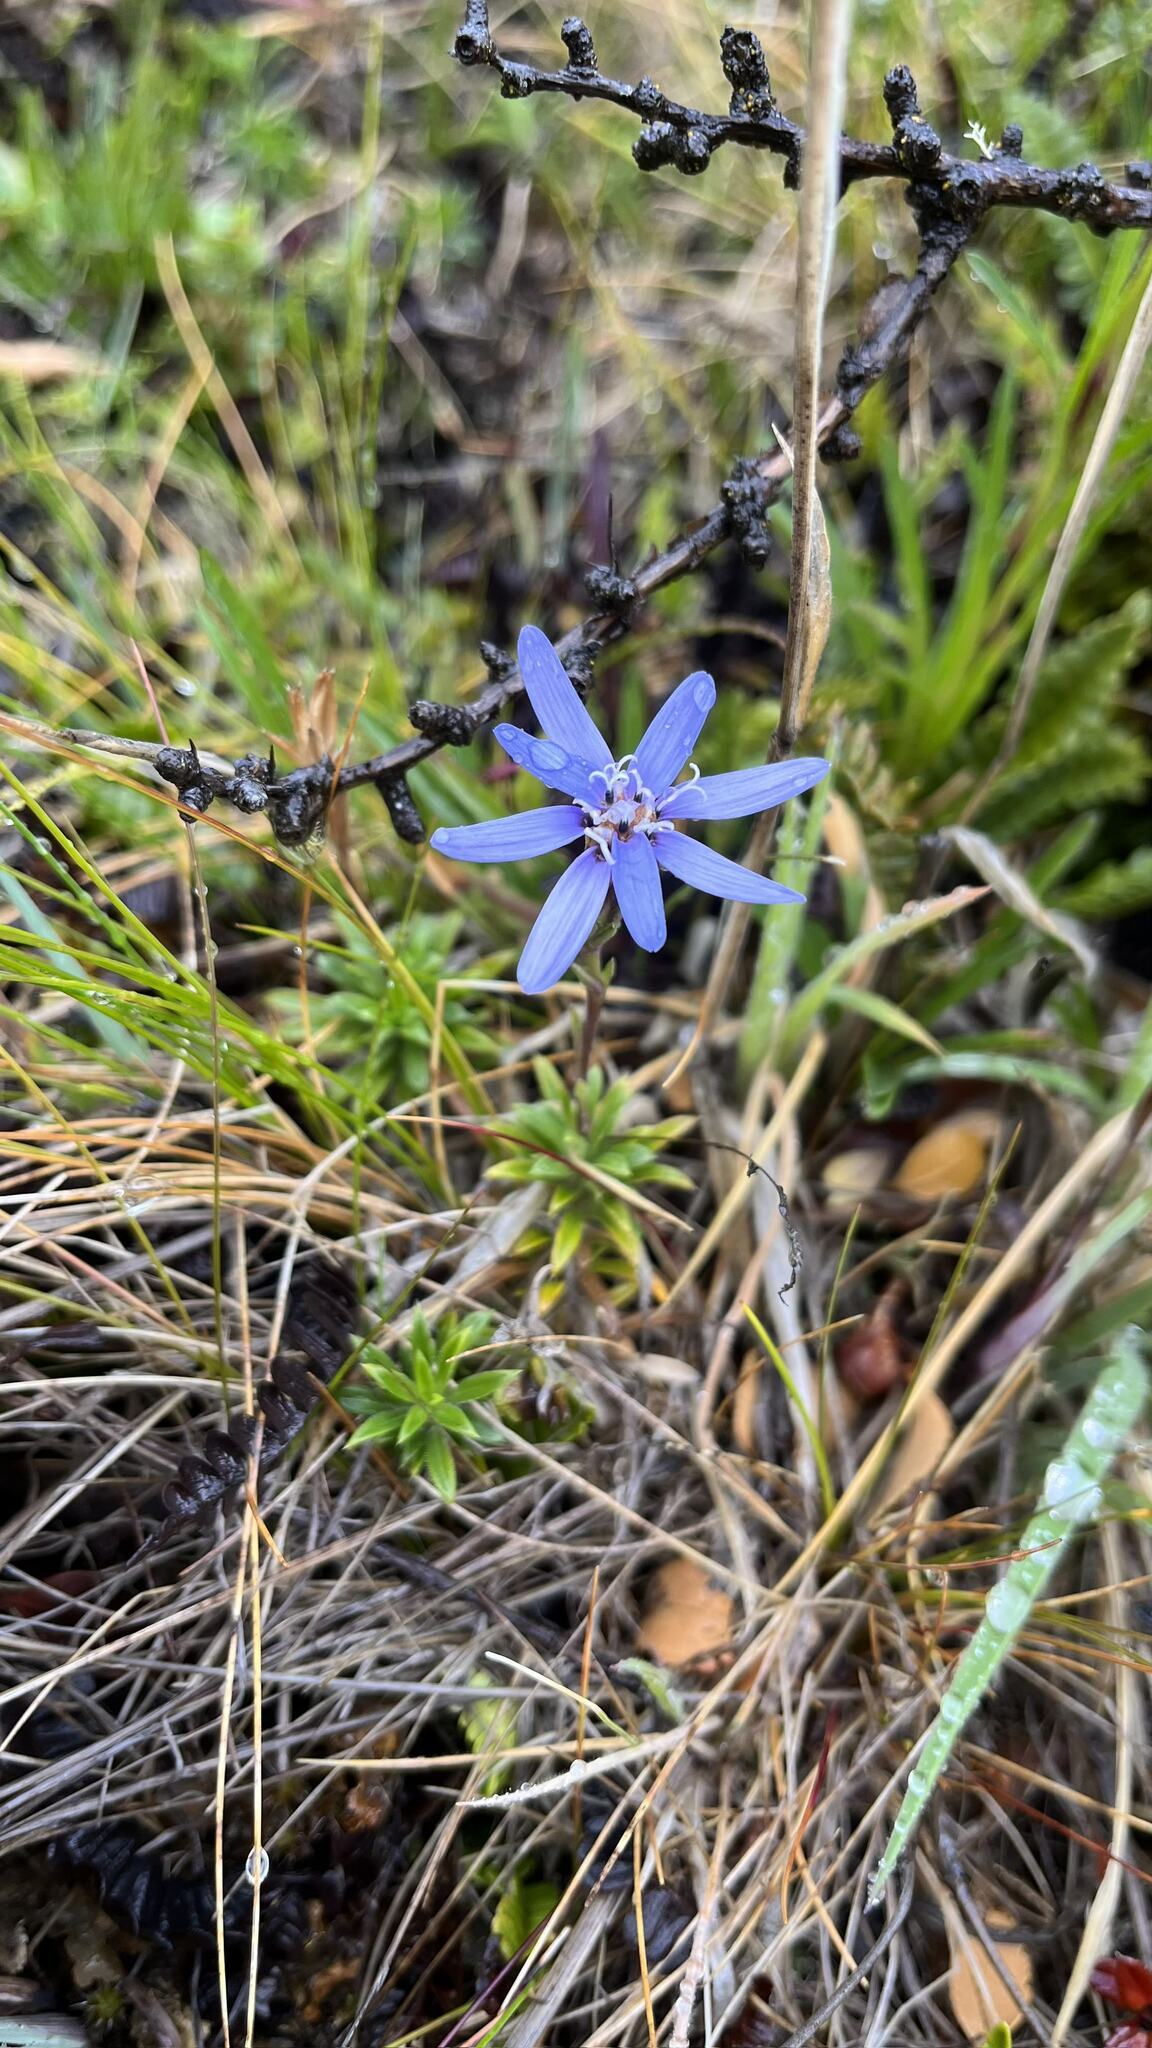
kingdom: Plantae
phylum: Tracheophyta
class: Magnoliopsida
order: Asterales
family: Asteraceae
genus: Perezia
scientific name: Perezia recurvata
